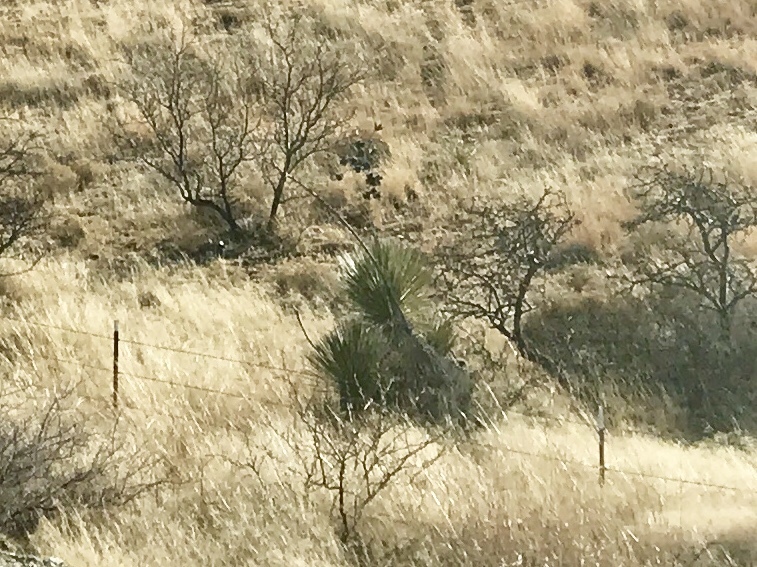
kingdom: Plantae
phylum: Tracheophyta
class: Liliopsida
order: Asparagales
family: Asparagaceae
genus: Yucca
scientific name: Yucca elata
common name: Palmella
